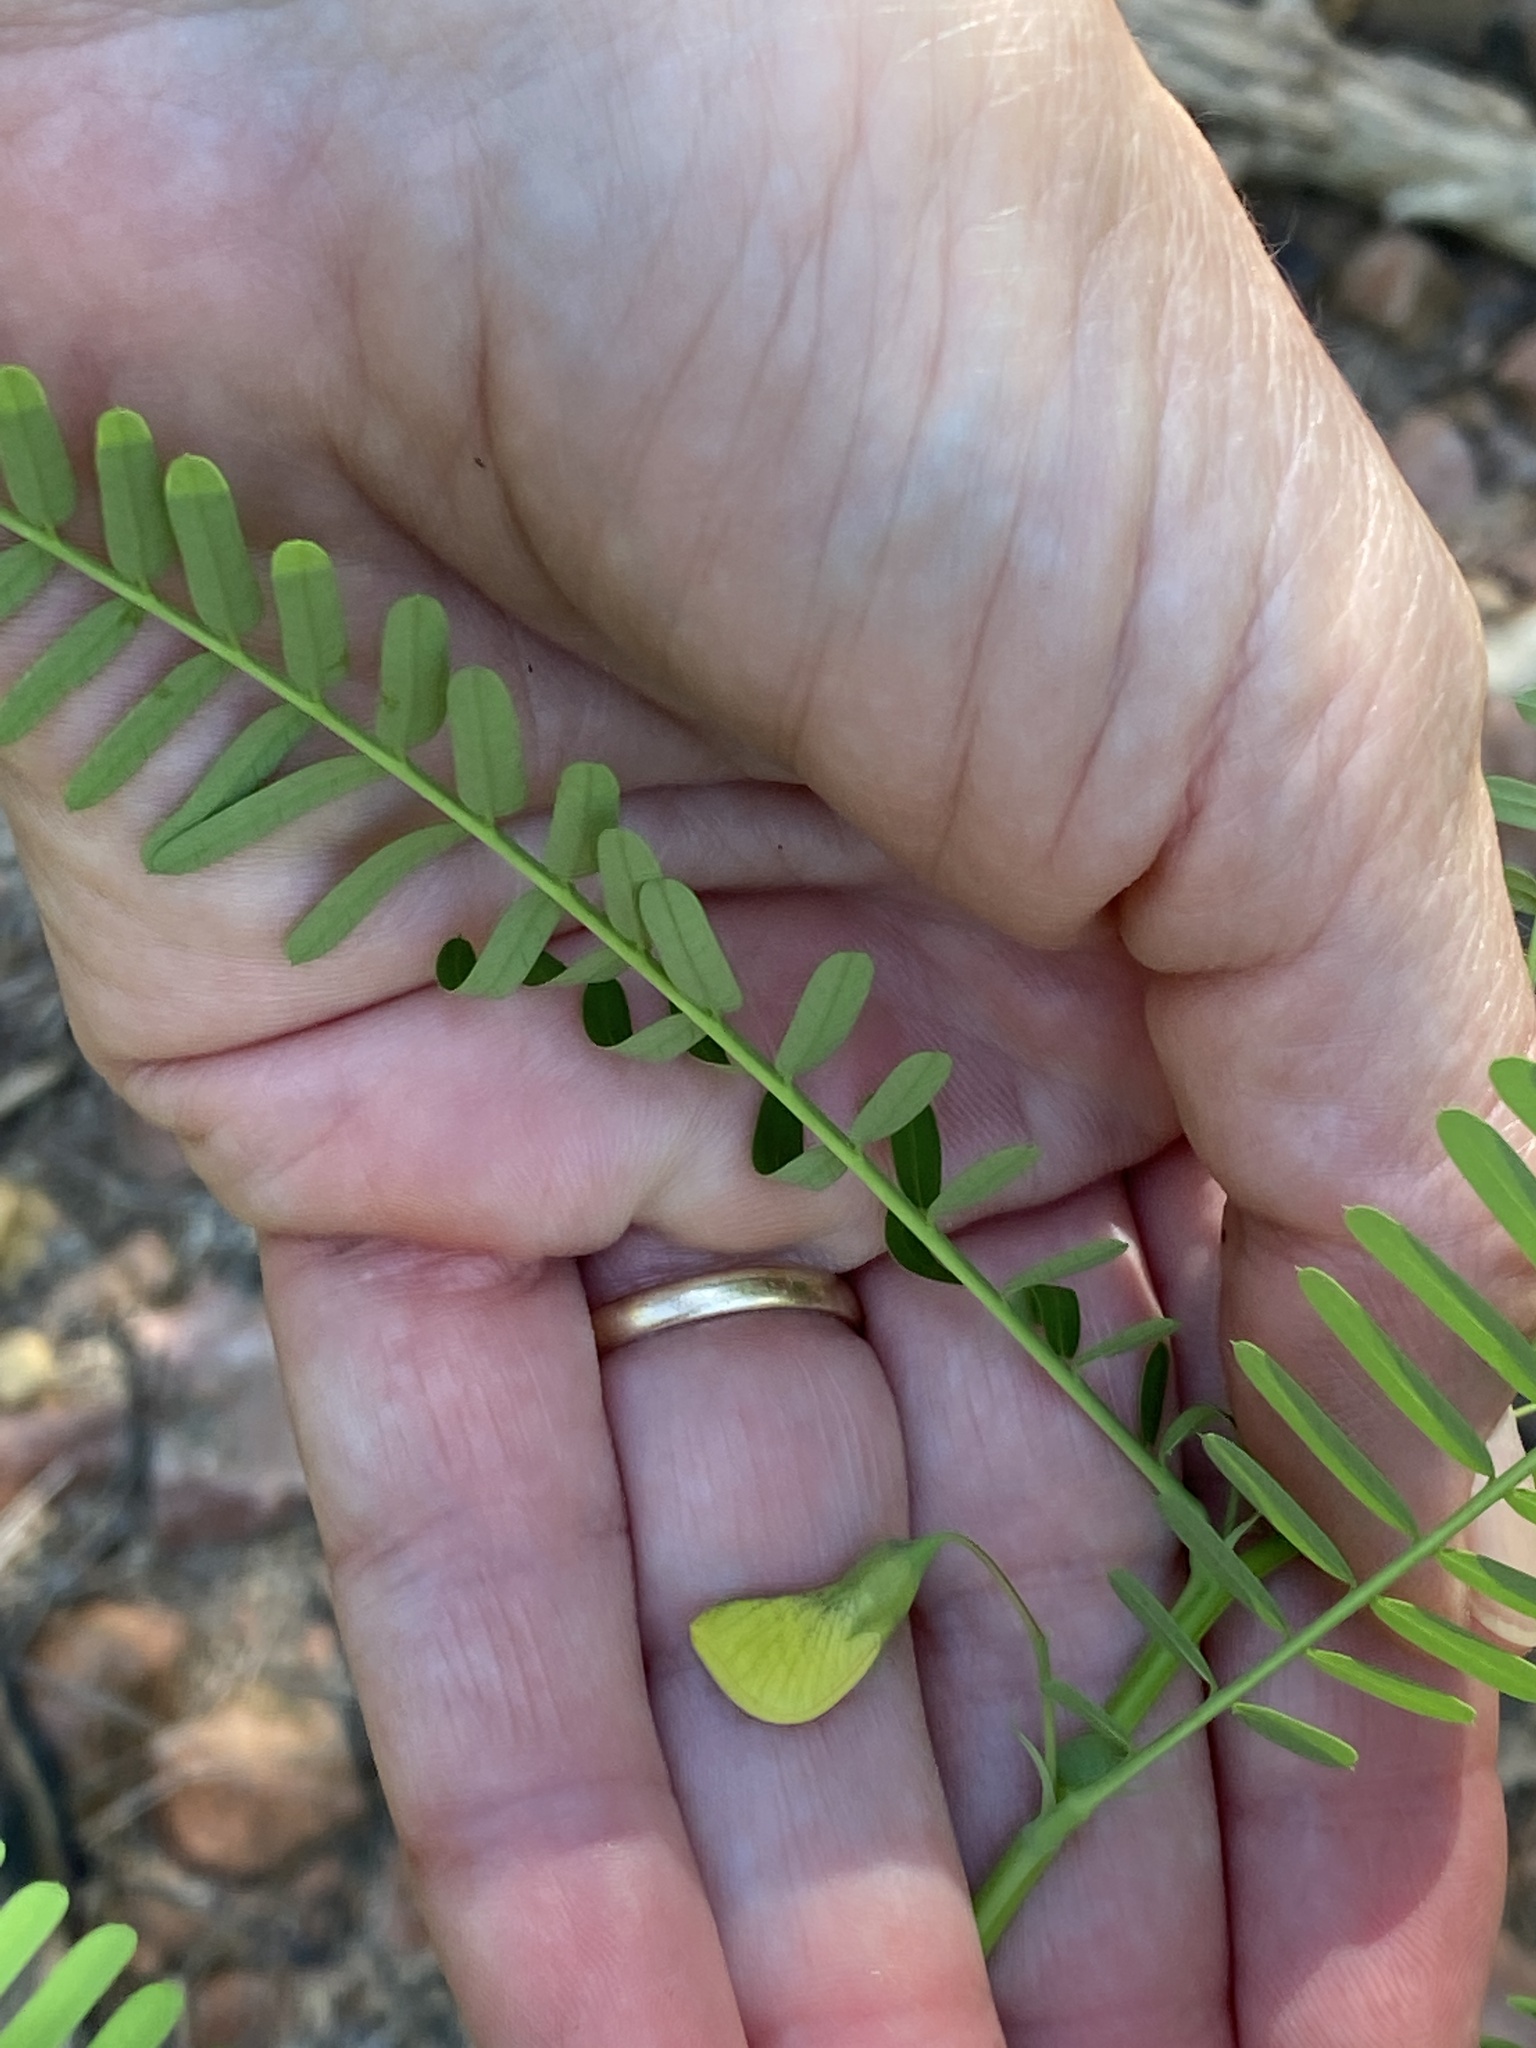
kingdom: Plantae
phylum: Tracheophyta
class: Magnoliopsida
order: Fabales
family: Fabaceae
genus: Sesbania
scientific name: Sesbania herbacea
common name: Bigpod sesbania
